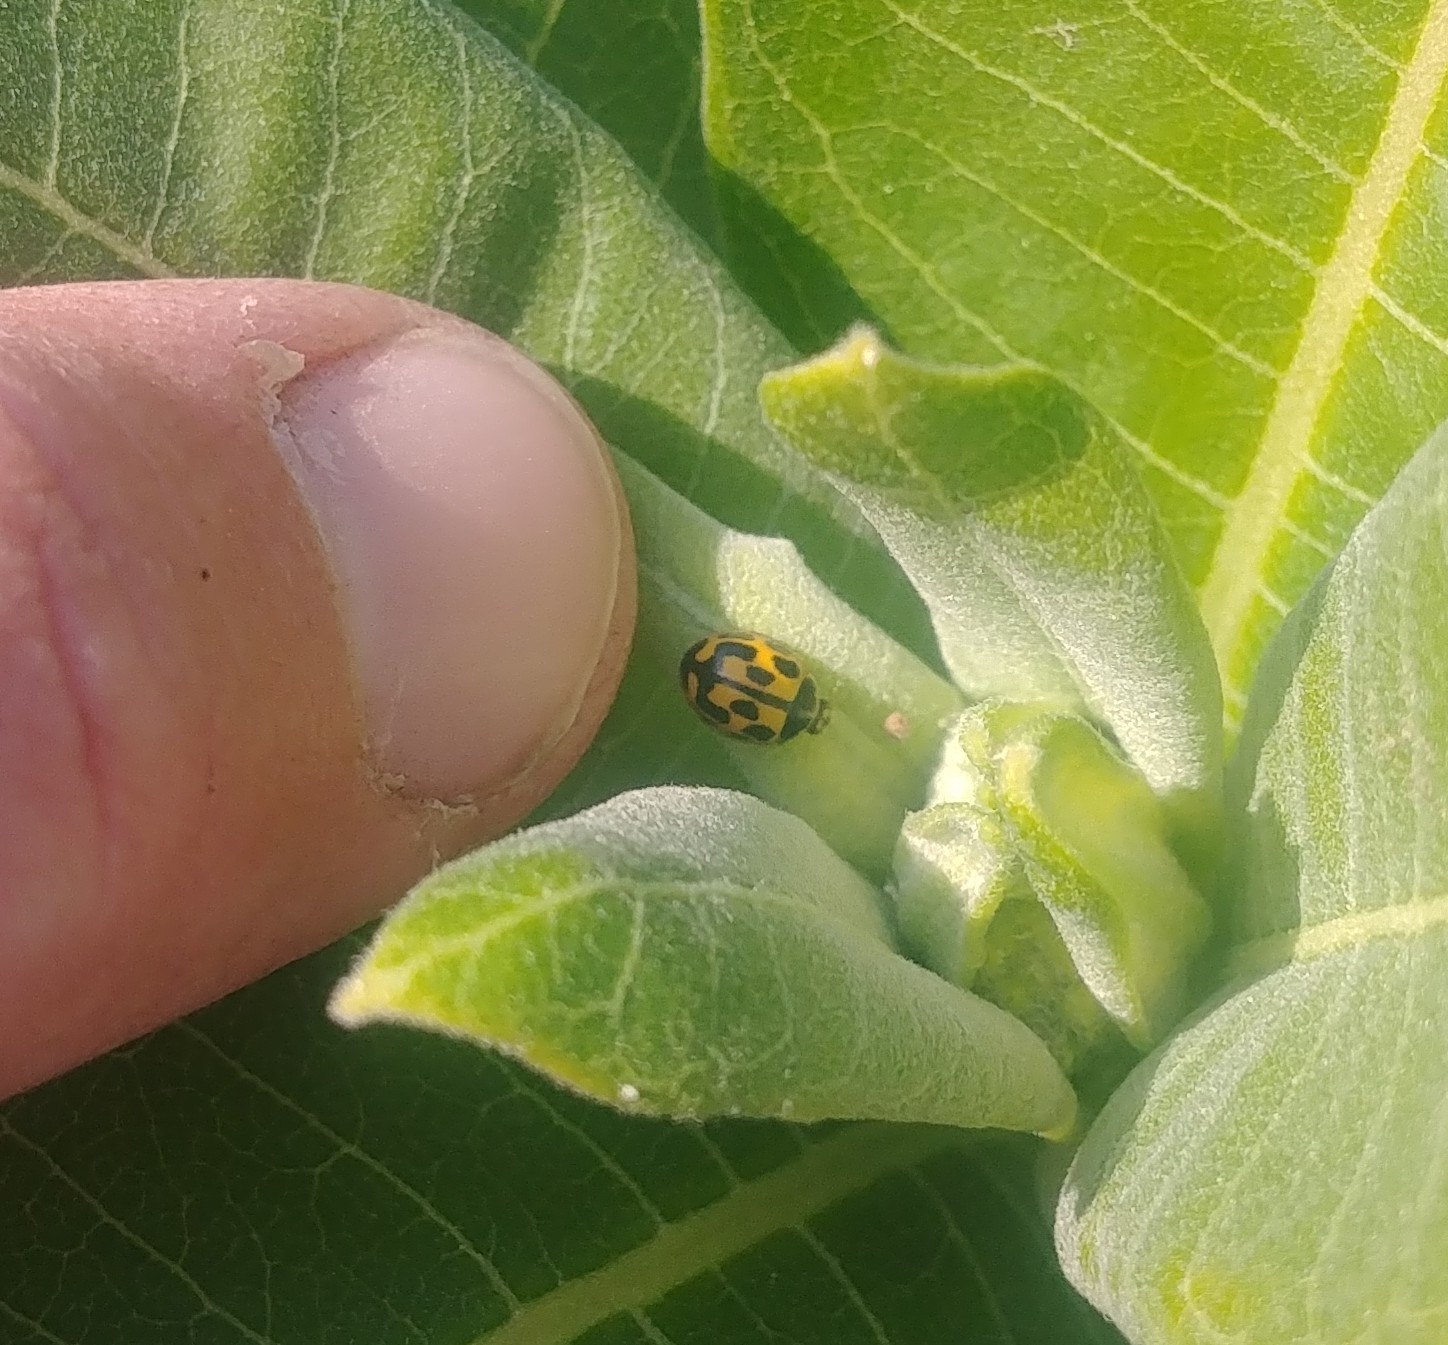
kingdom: Animalia
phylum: Arthropoda
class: Insecta
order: Coleoptera
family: Coccinellidae
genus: Propylaea
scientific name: Propylaea quatuordecimpunctata
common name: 14-spotted ladybird beetle
